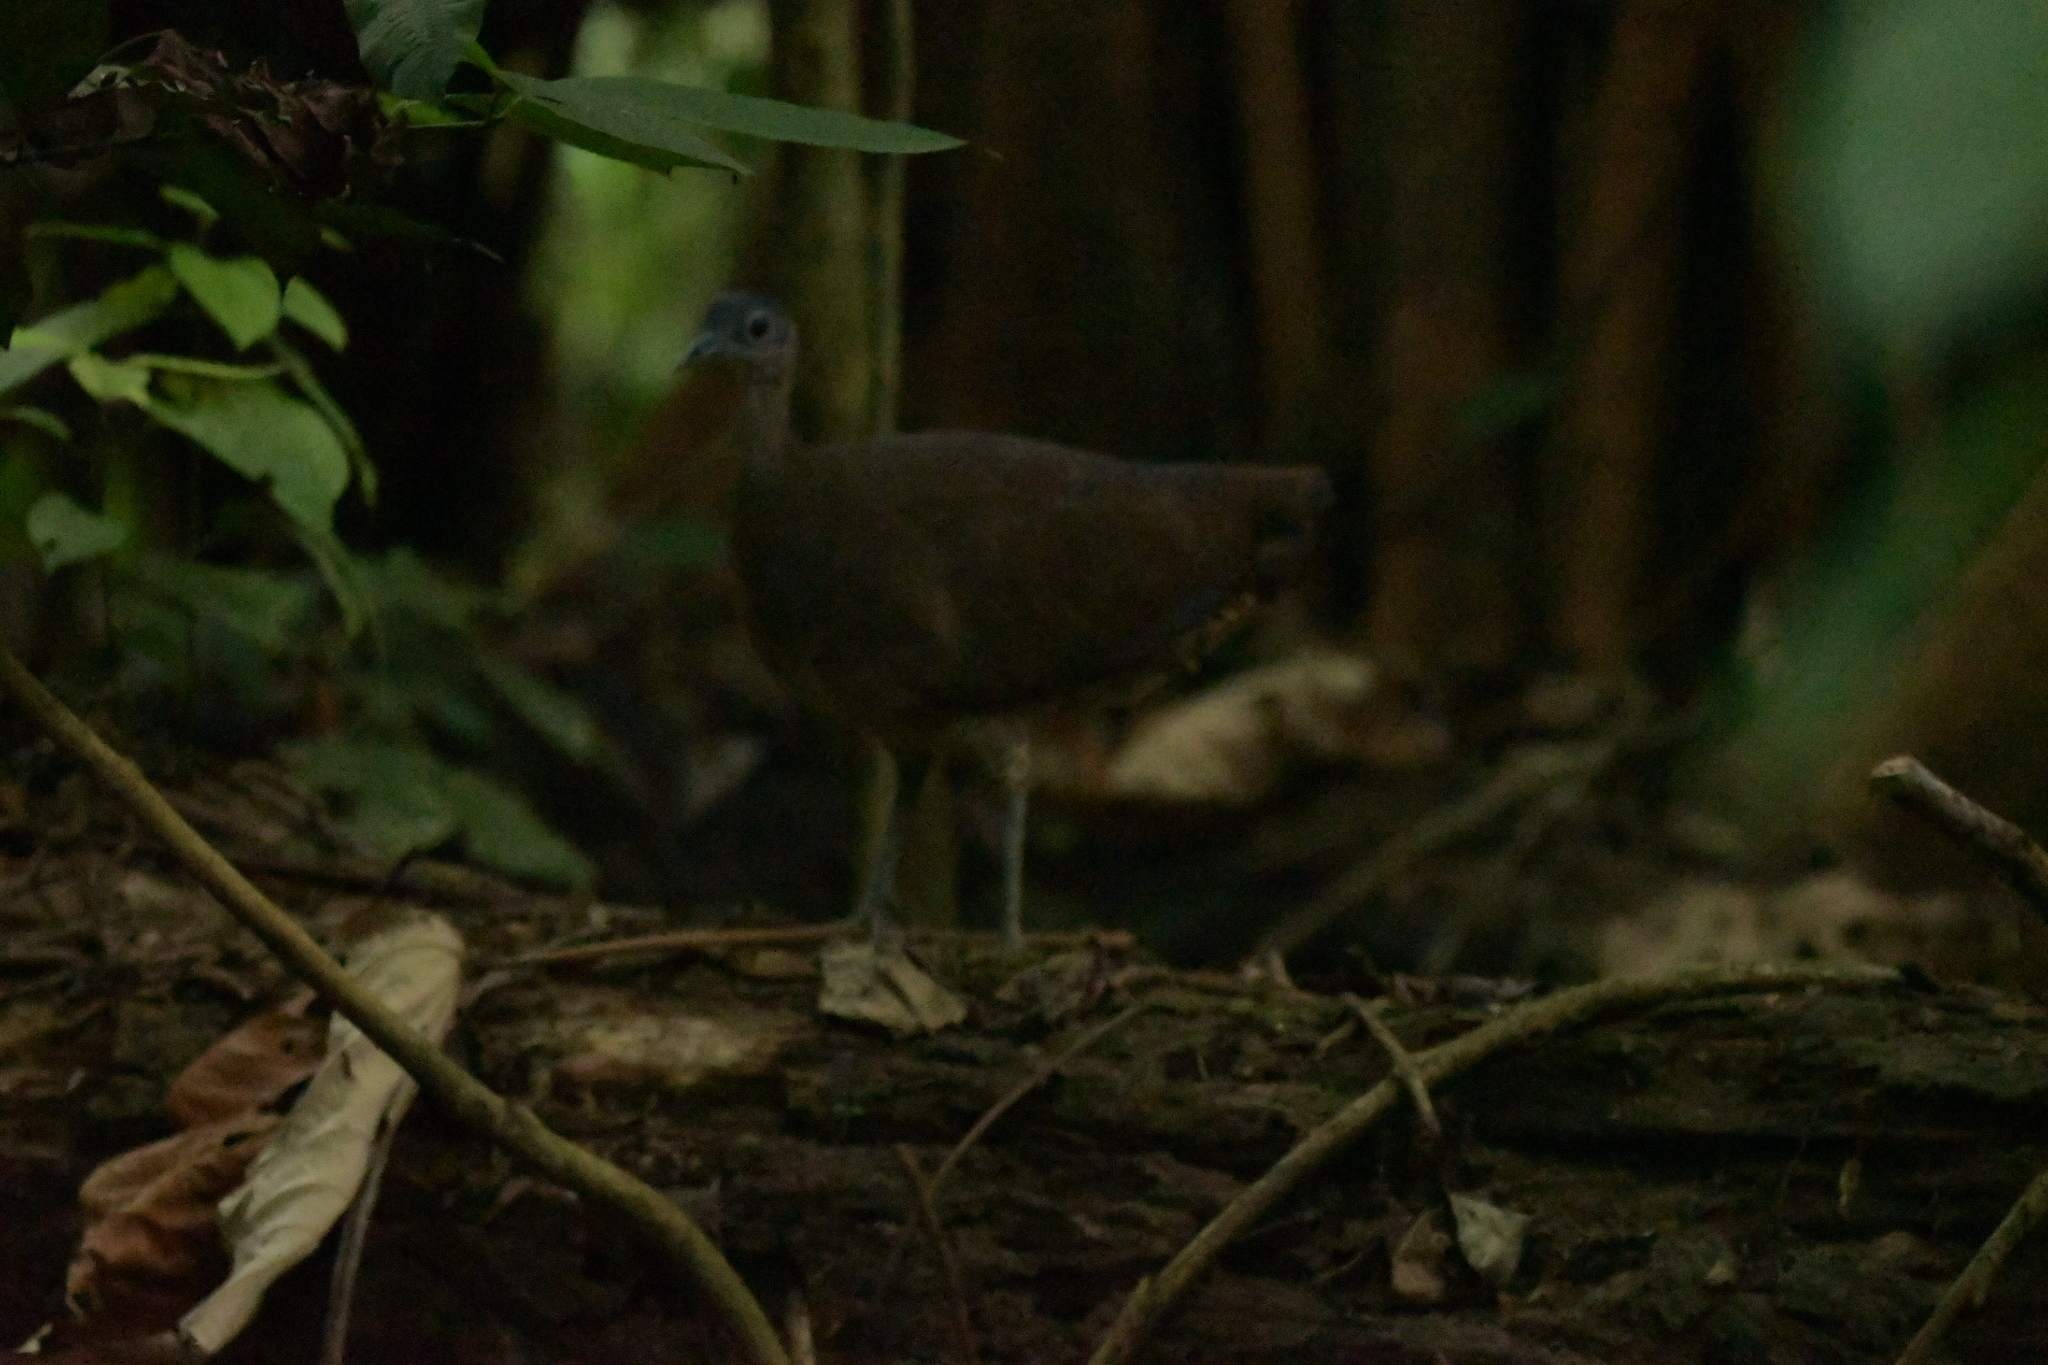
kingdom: Animalia
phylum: Chordata
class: Aves
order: Tinamiformes
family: Tinamidae
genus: Tinamus
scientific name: Tinamus major
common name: Great tinamou
